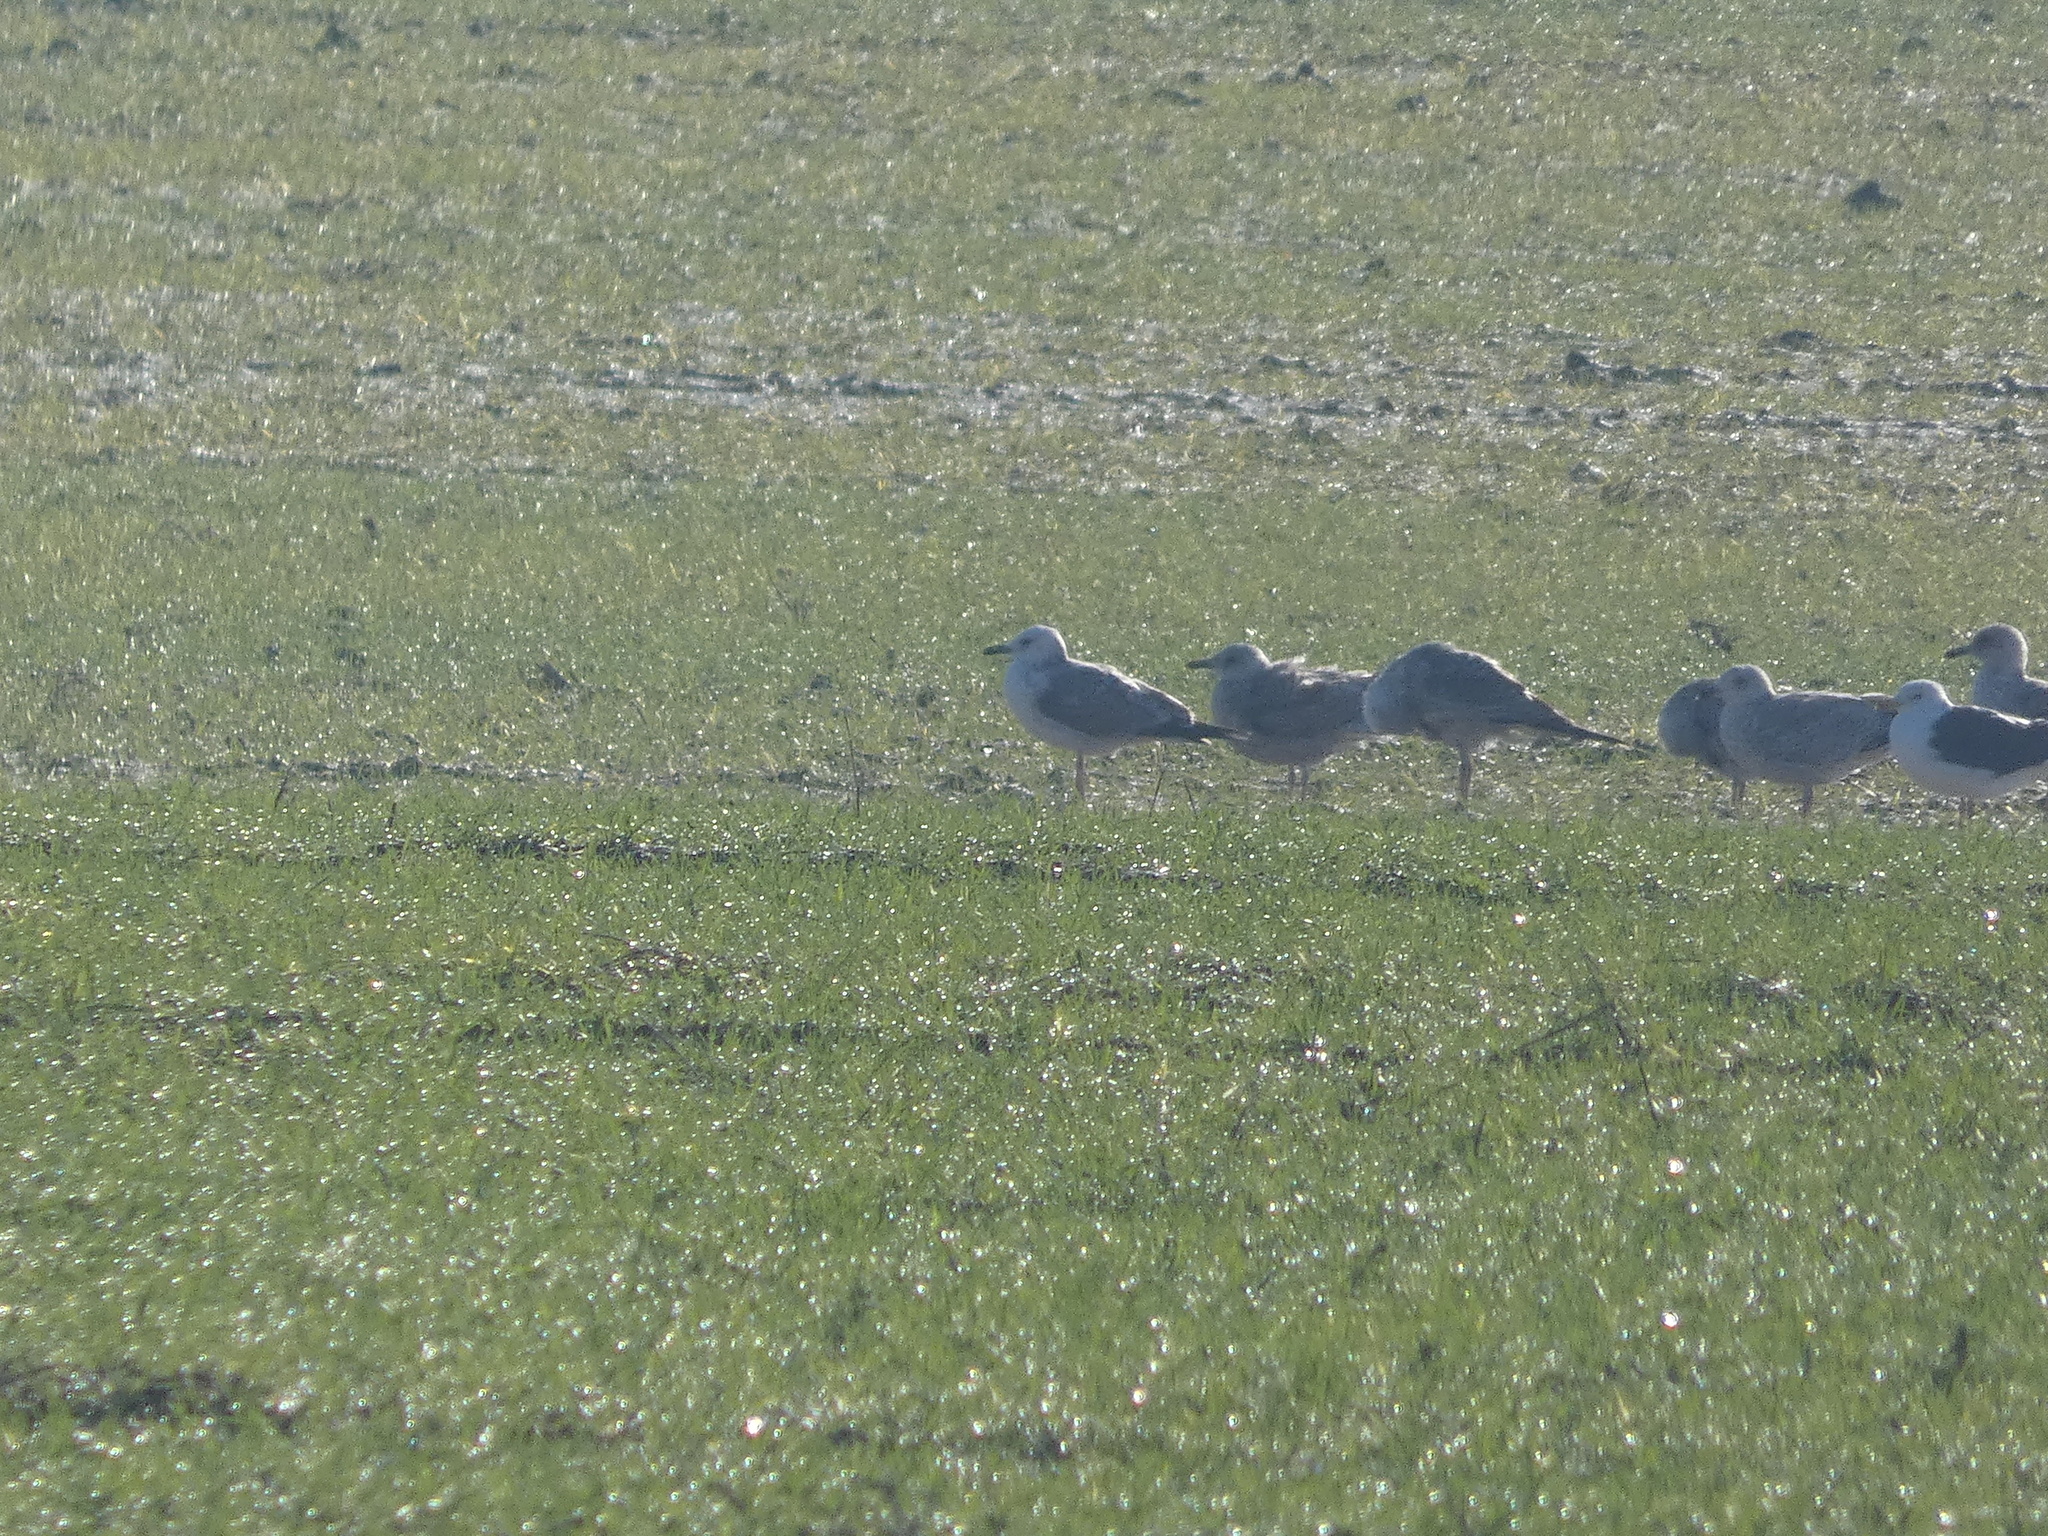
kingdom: Animalia
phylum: Chordata
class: Aves
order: Charadriiformes
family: Laridae
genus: Larus
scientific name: Larus cachinnans
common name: Caspian gull
